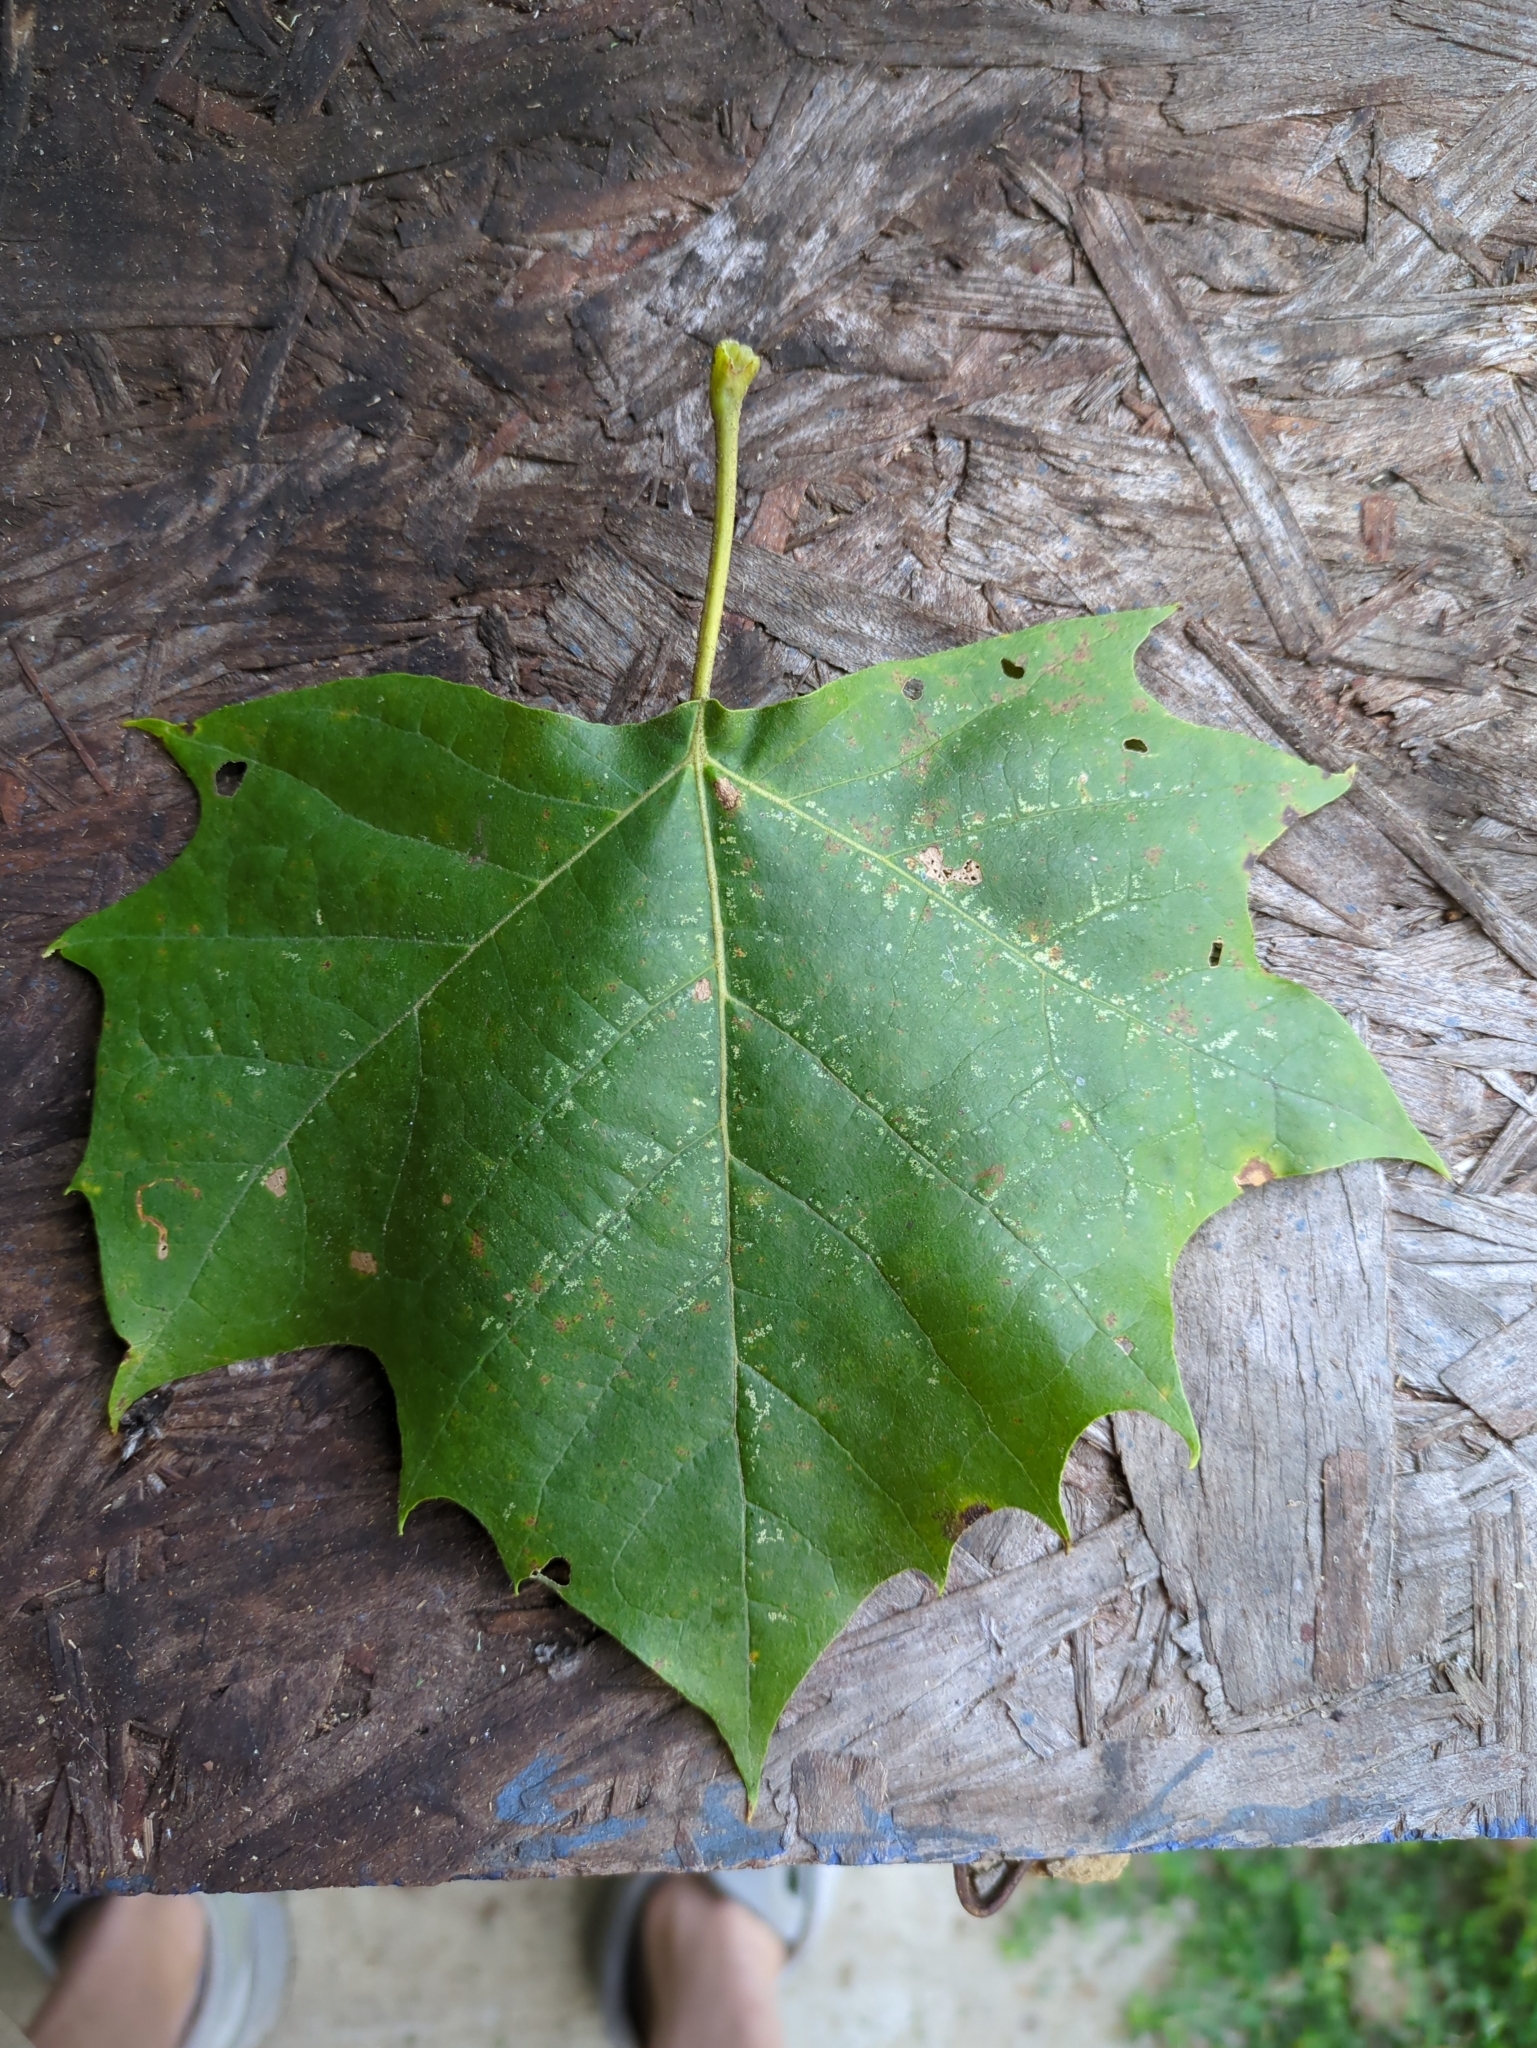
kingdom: Plantae
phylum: Tracheophyta
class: Magnoliopsida
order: Proteales
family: Platanaceae
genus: Platanus
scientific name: Platanus occidentalis
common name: American sycamore
